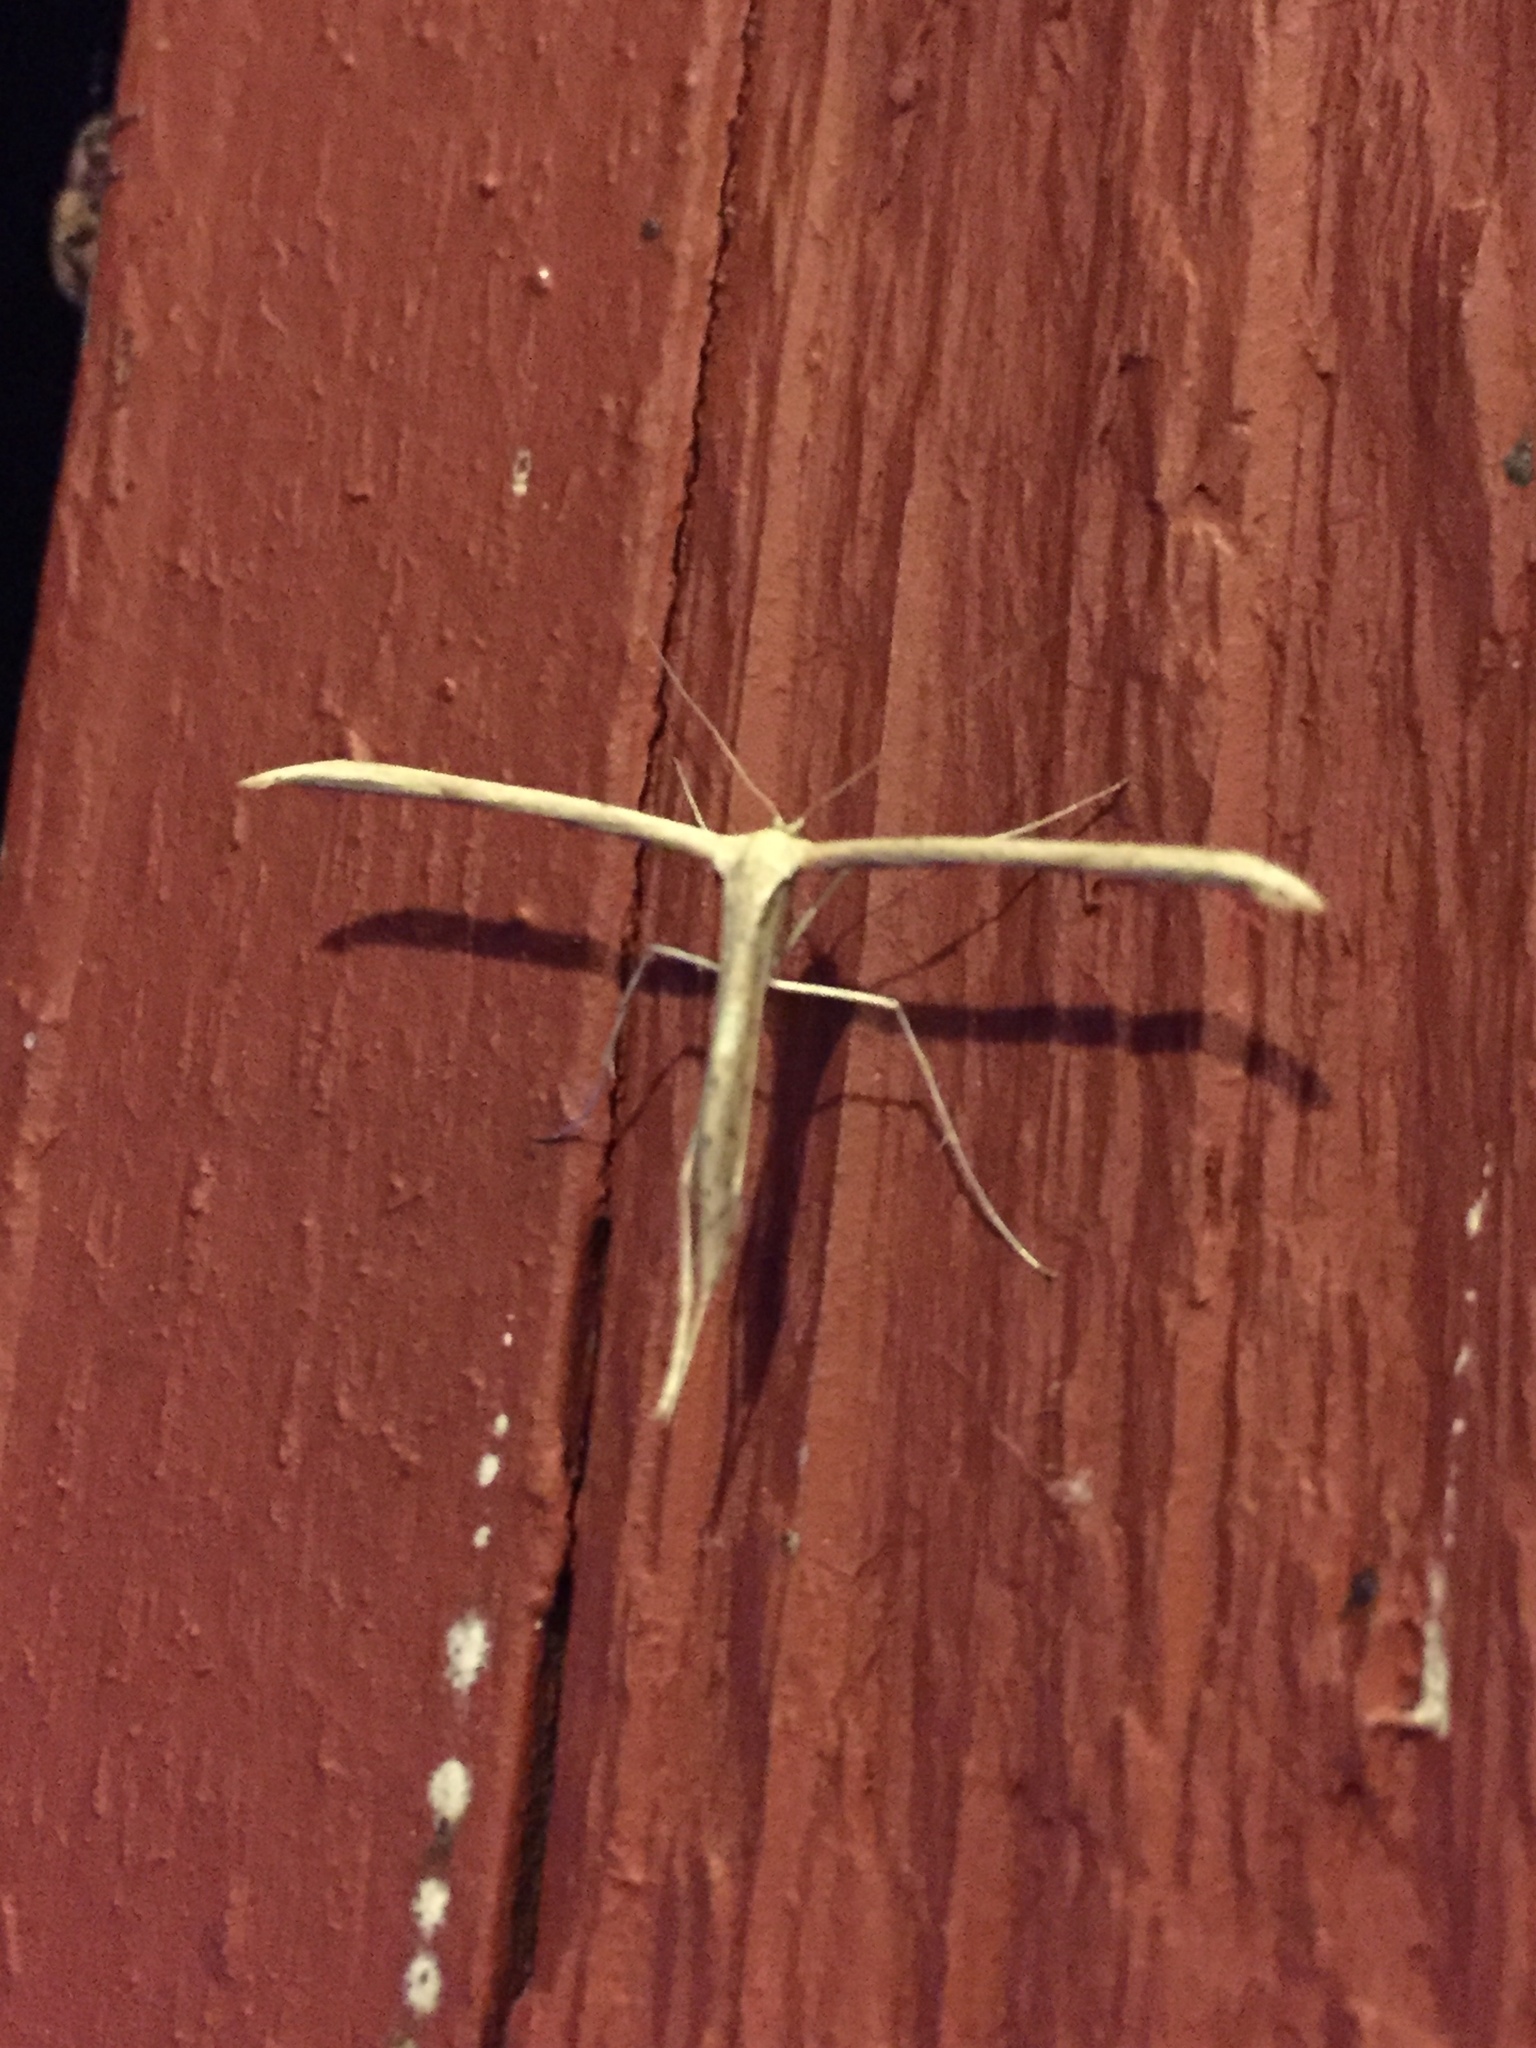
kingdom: Animalia
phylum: Arthropoda
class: Insecta
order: Lepidoptera
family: Pterophoridae
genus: Emmelina
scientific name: Emmelina monodactyla
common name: Common plume
